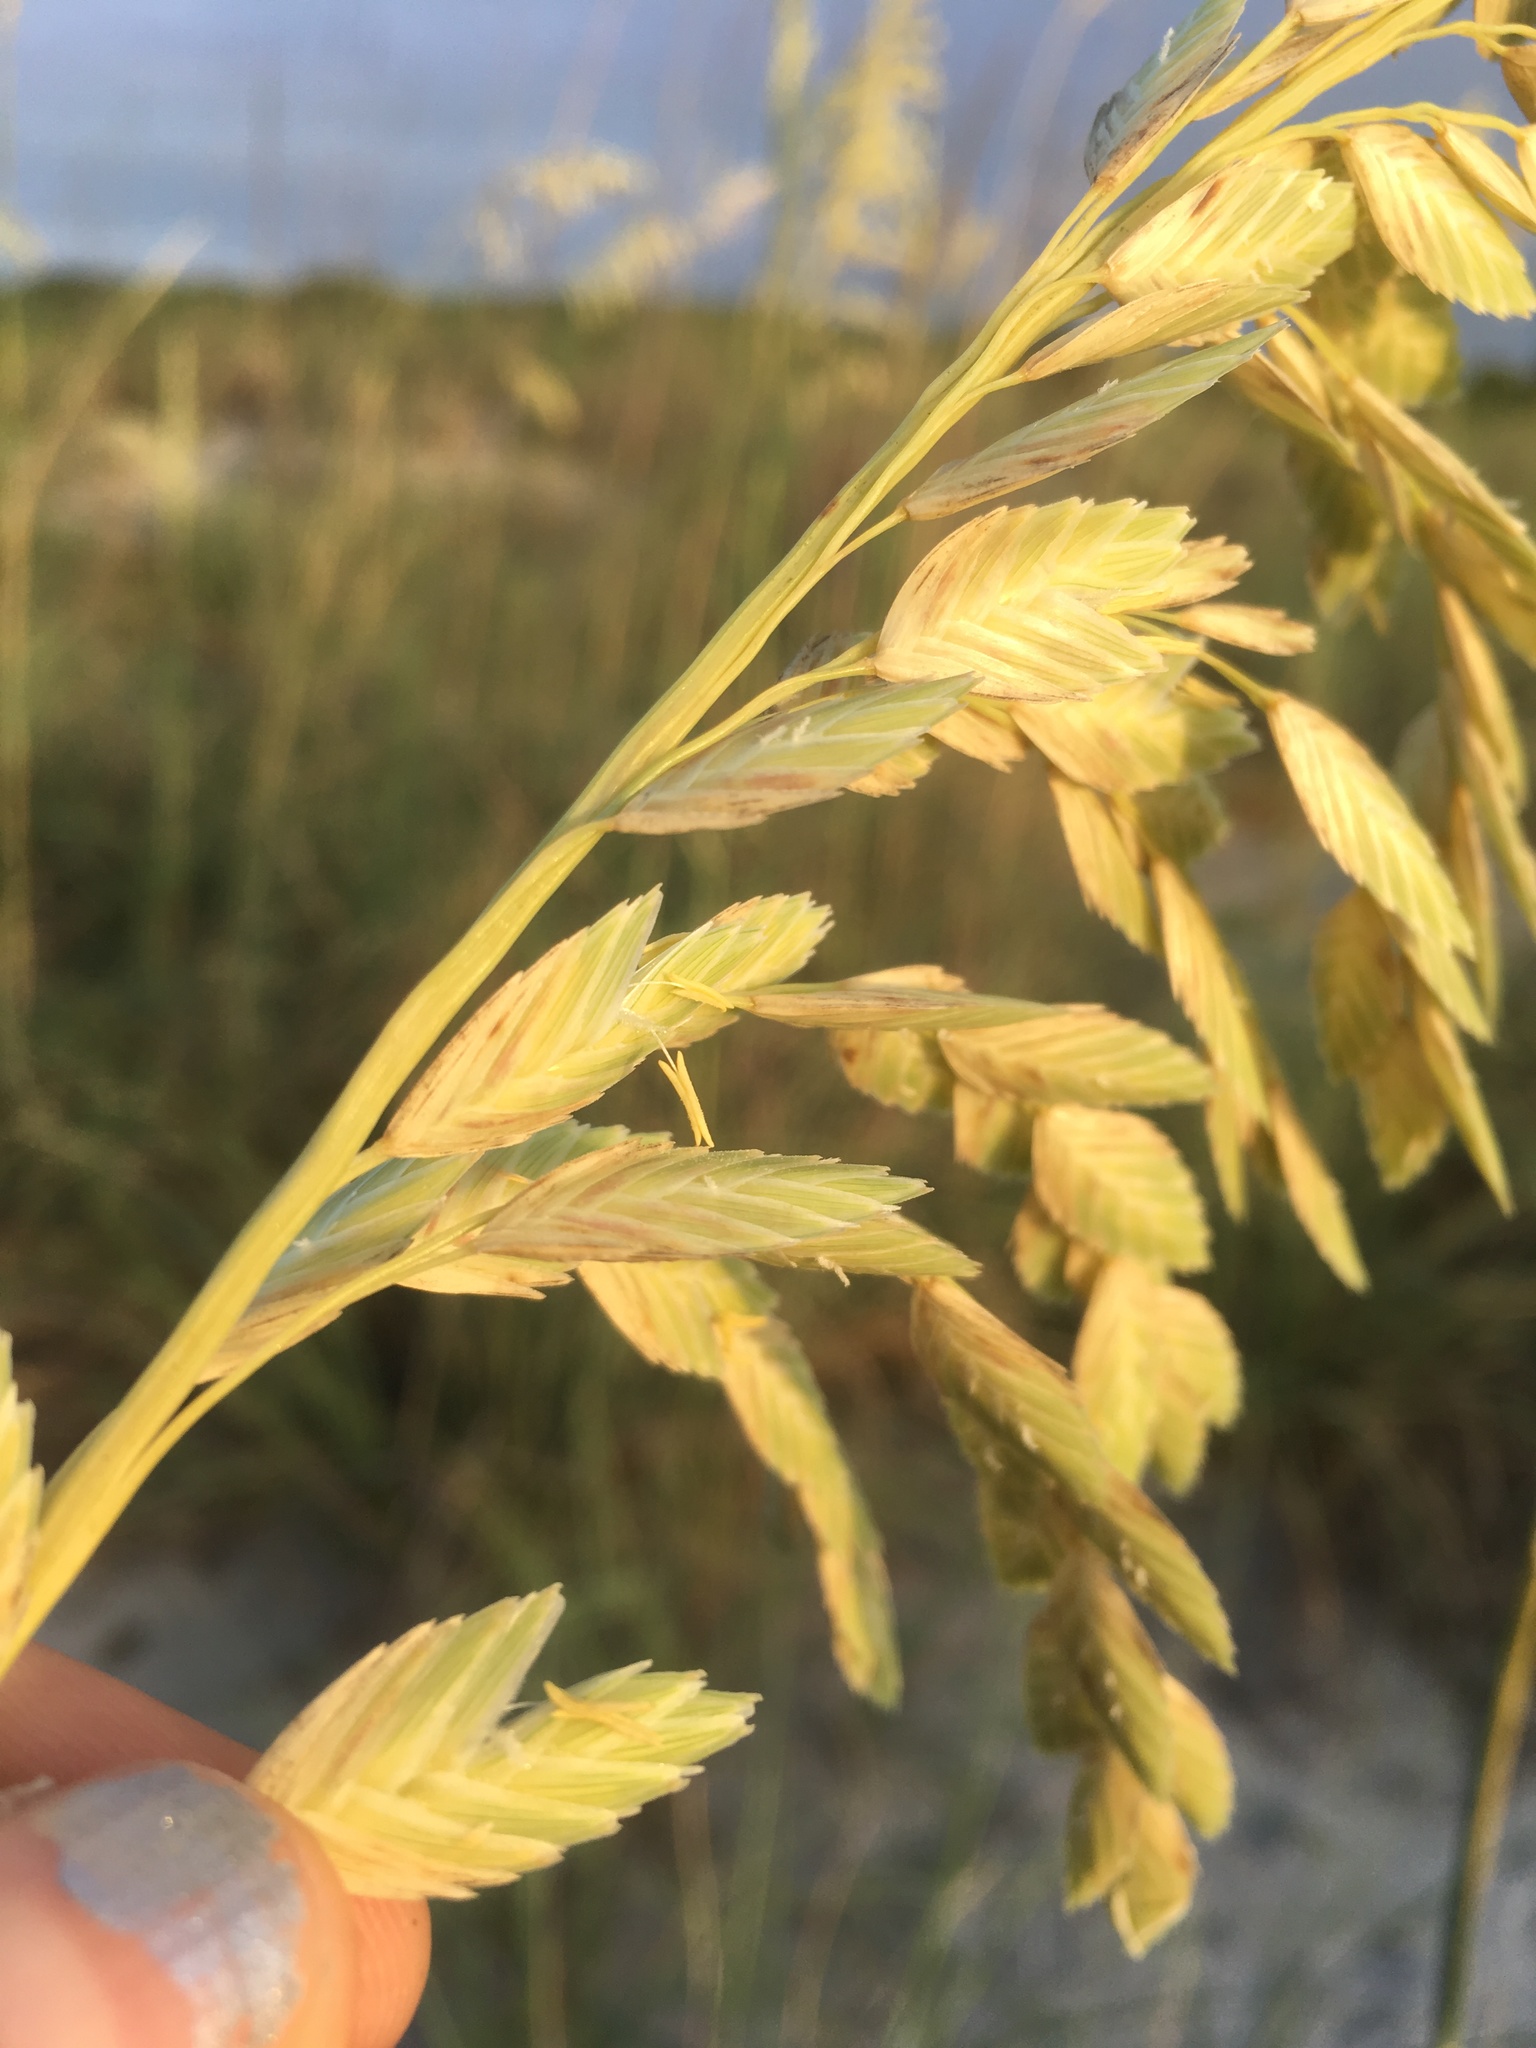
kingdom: Plantae
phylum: Tracheophyta
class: Liliopsida
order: Poales
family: Poaceae
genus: Uniola
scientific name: Uniola paniculata
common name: Seaside-oats
